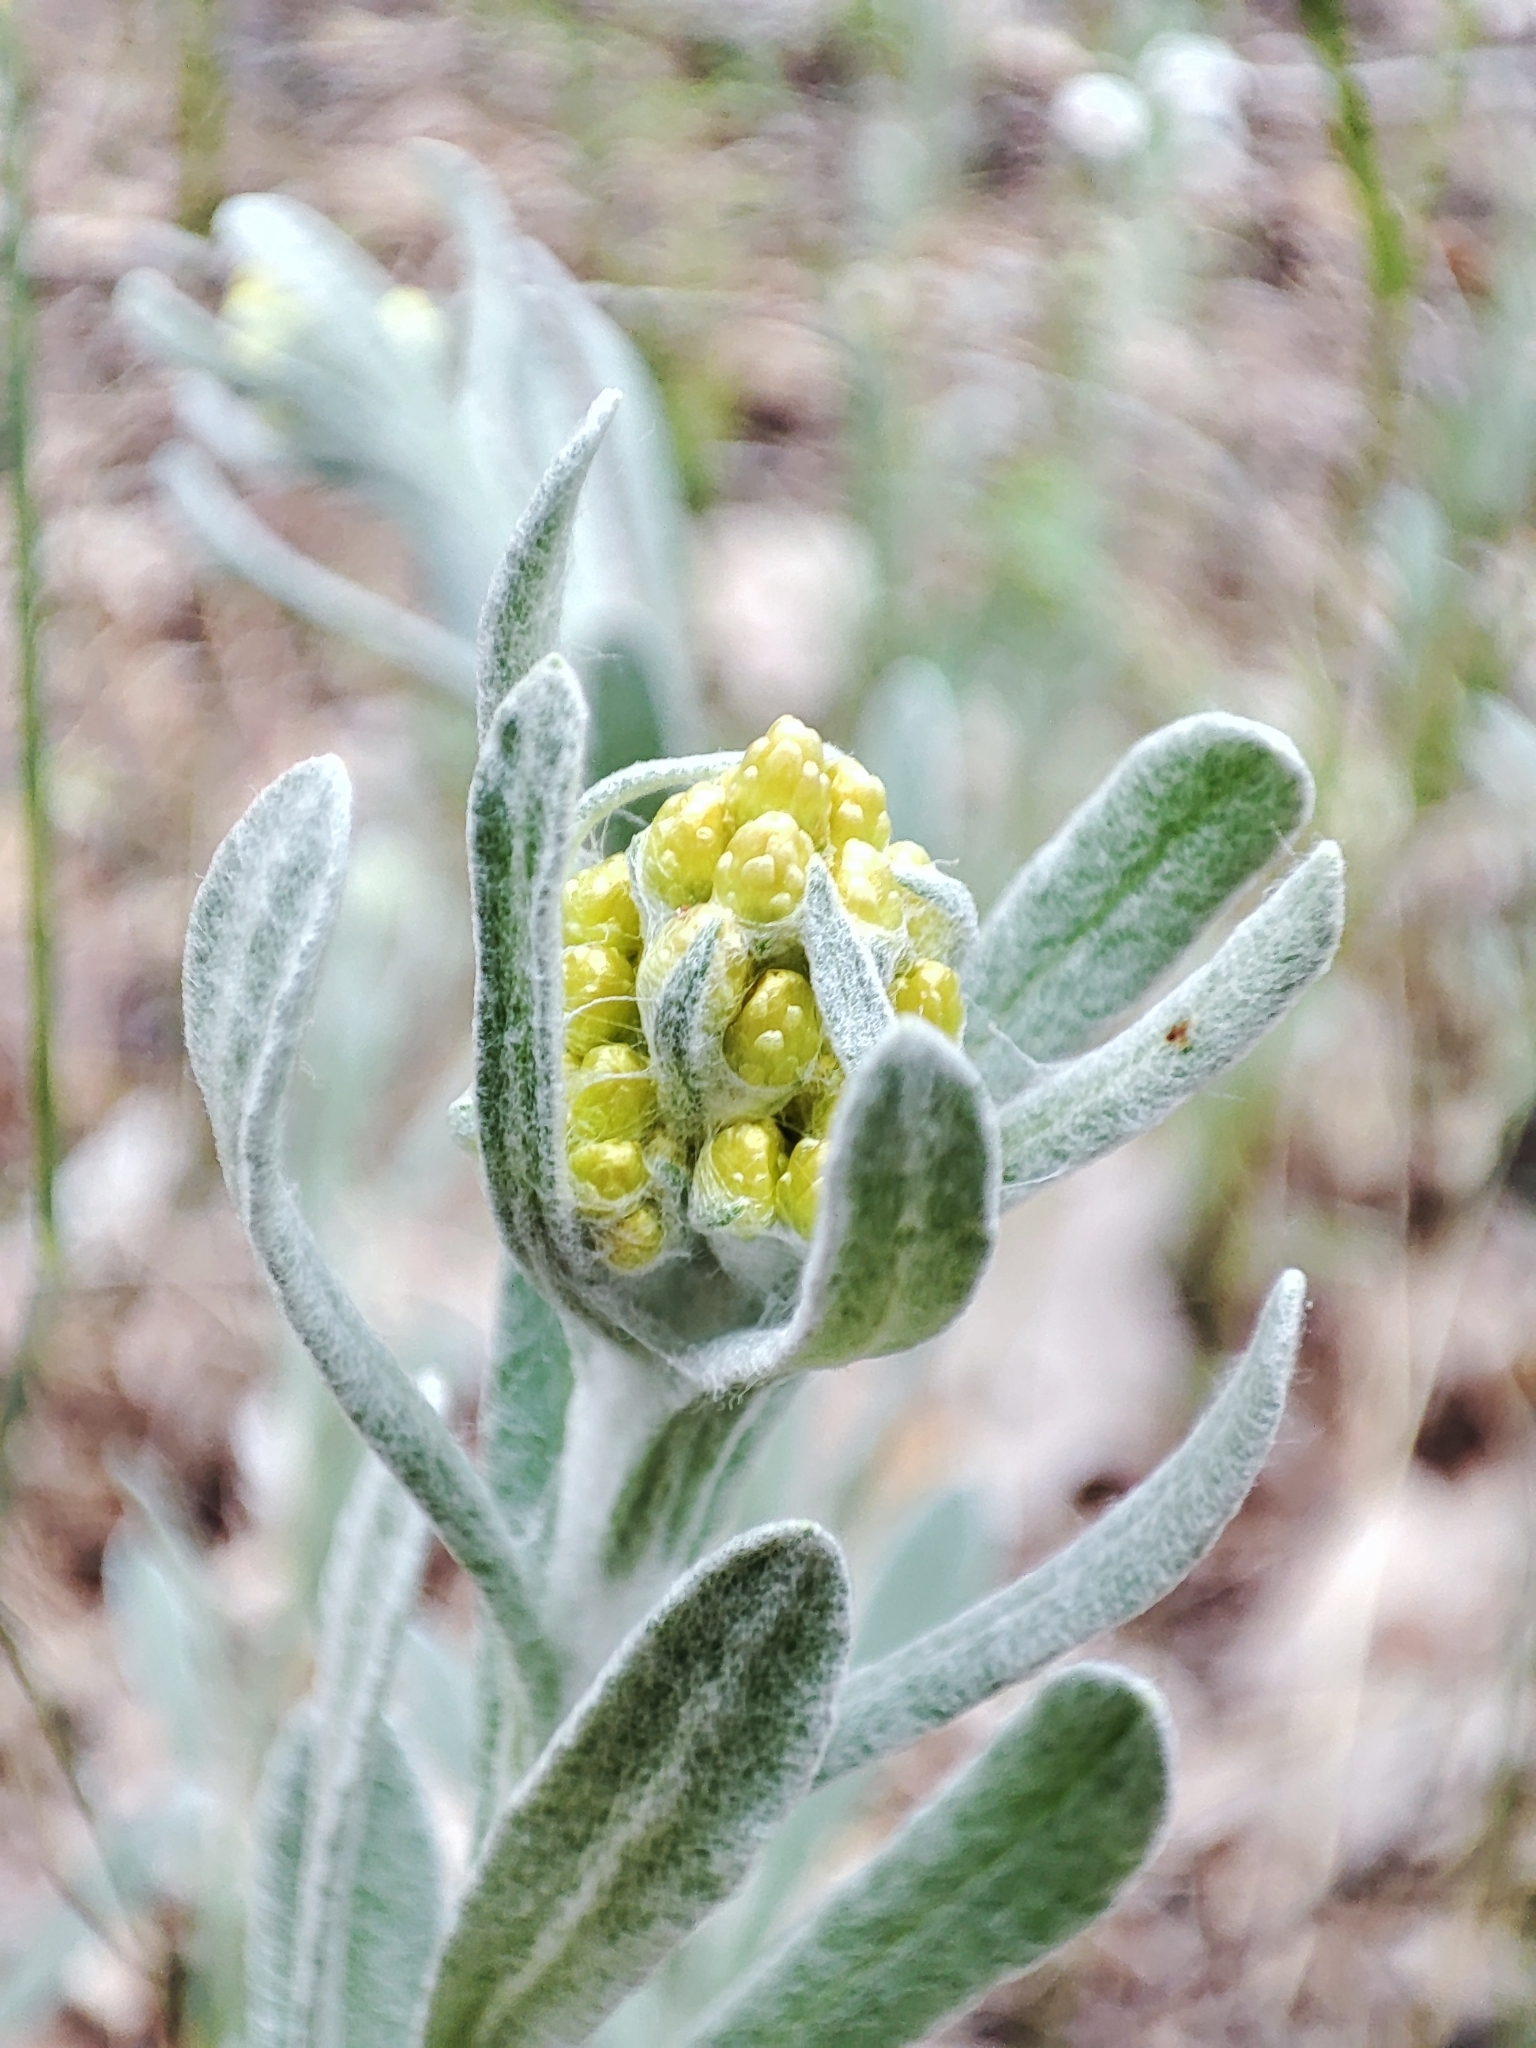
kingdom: Plantae
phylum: Tracheophyta
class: Magnoliopsida
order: Asterales
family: Asteraceae
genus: Helichrysum
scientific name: Helichrysum arenarium
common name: Strawflower
